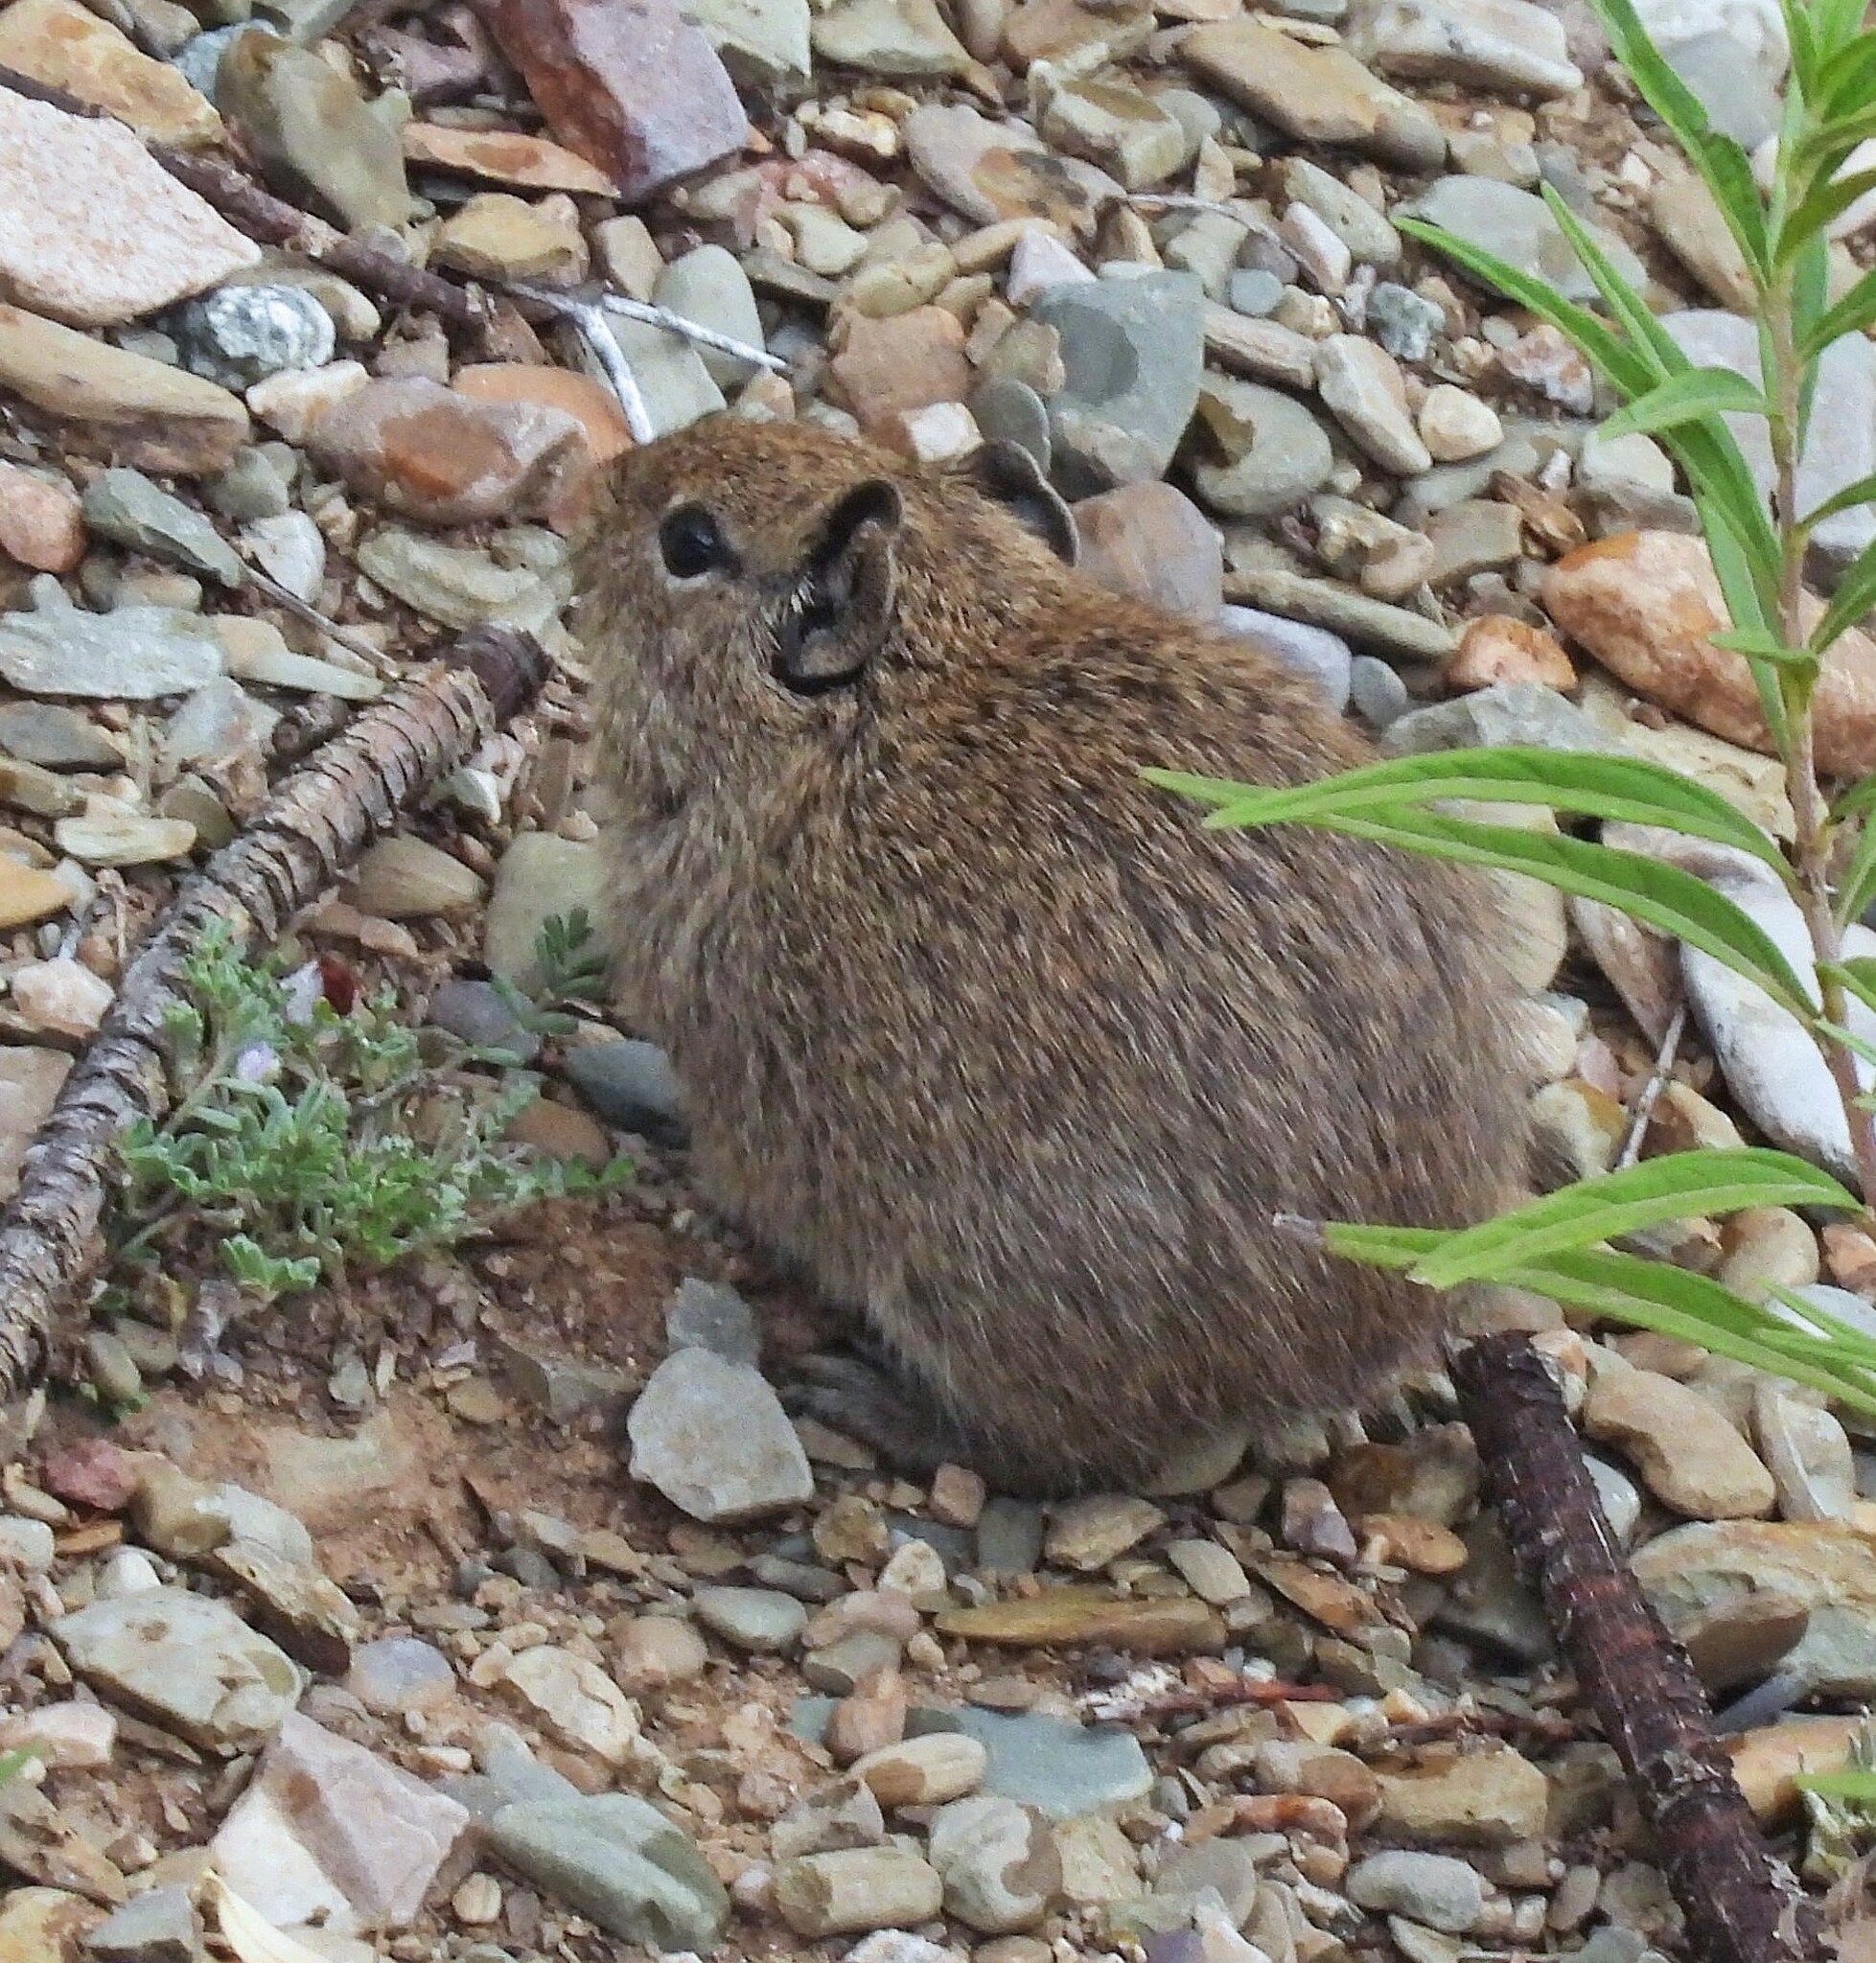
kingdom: Animalia
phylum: Chordata
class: Mammalia
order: Rodentia
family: Caviidae
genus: Galea
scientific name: Galea comes
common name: Southern highland yellow-toothed cavy
